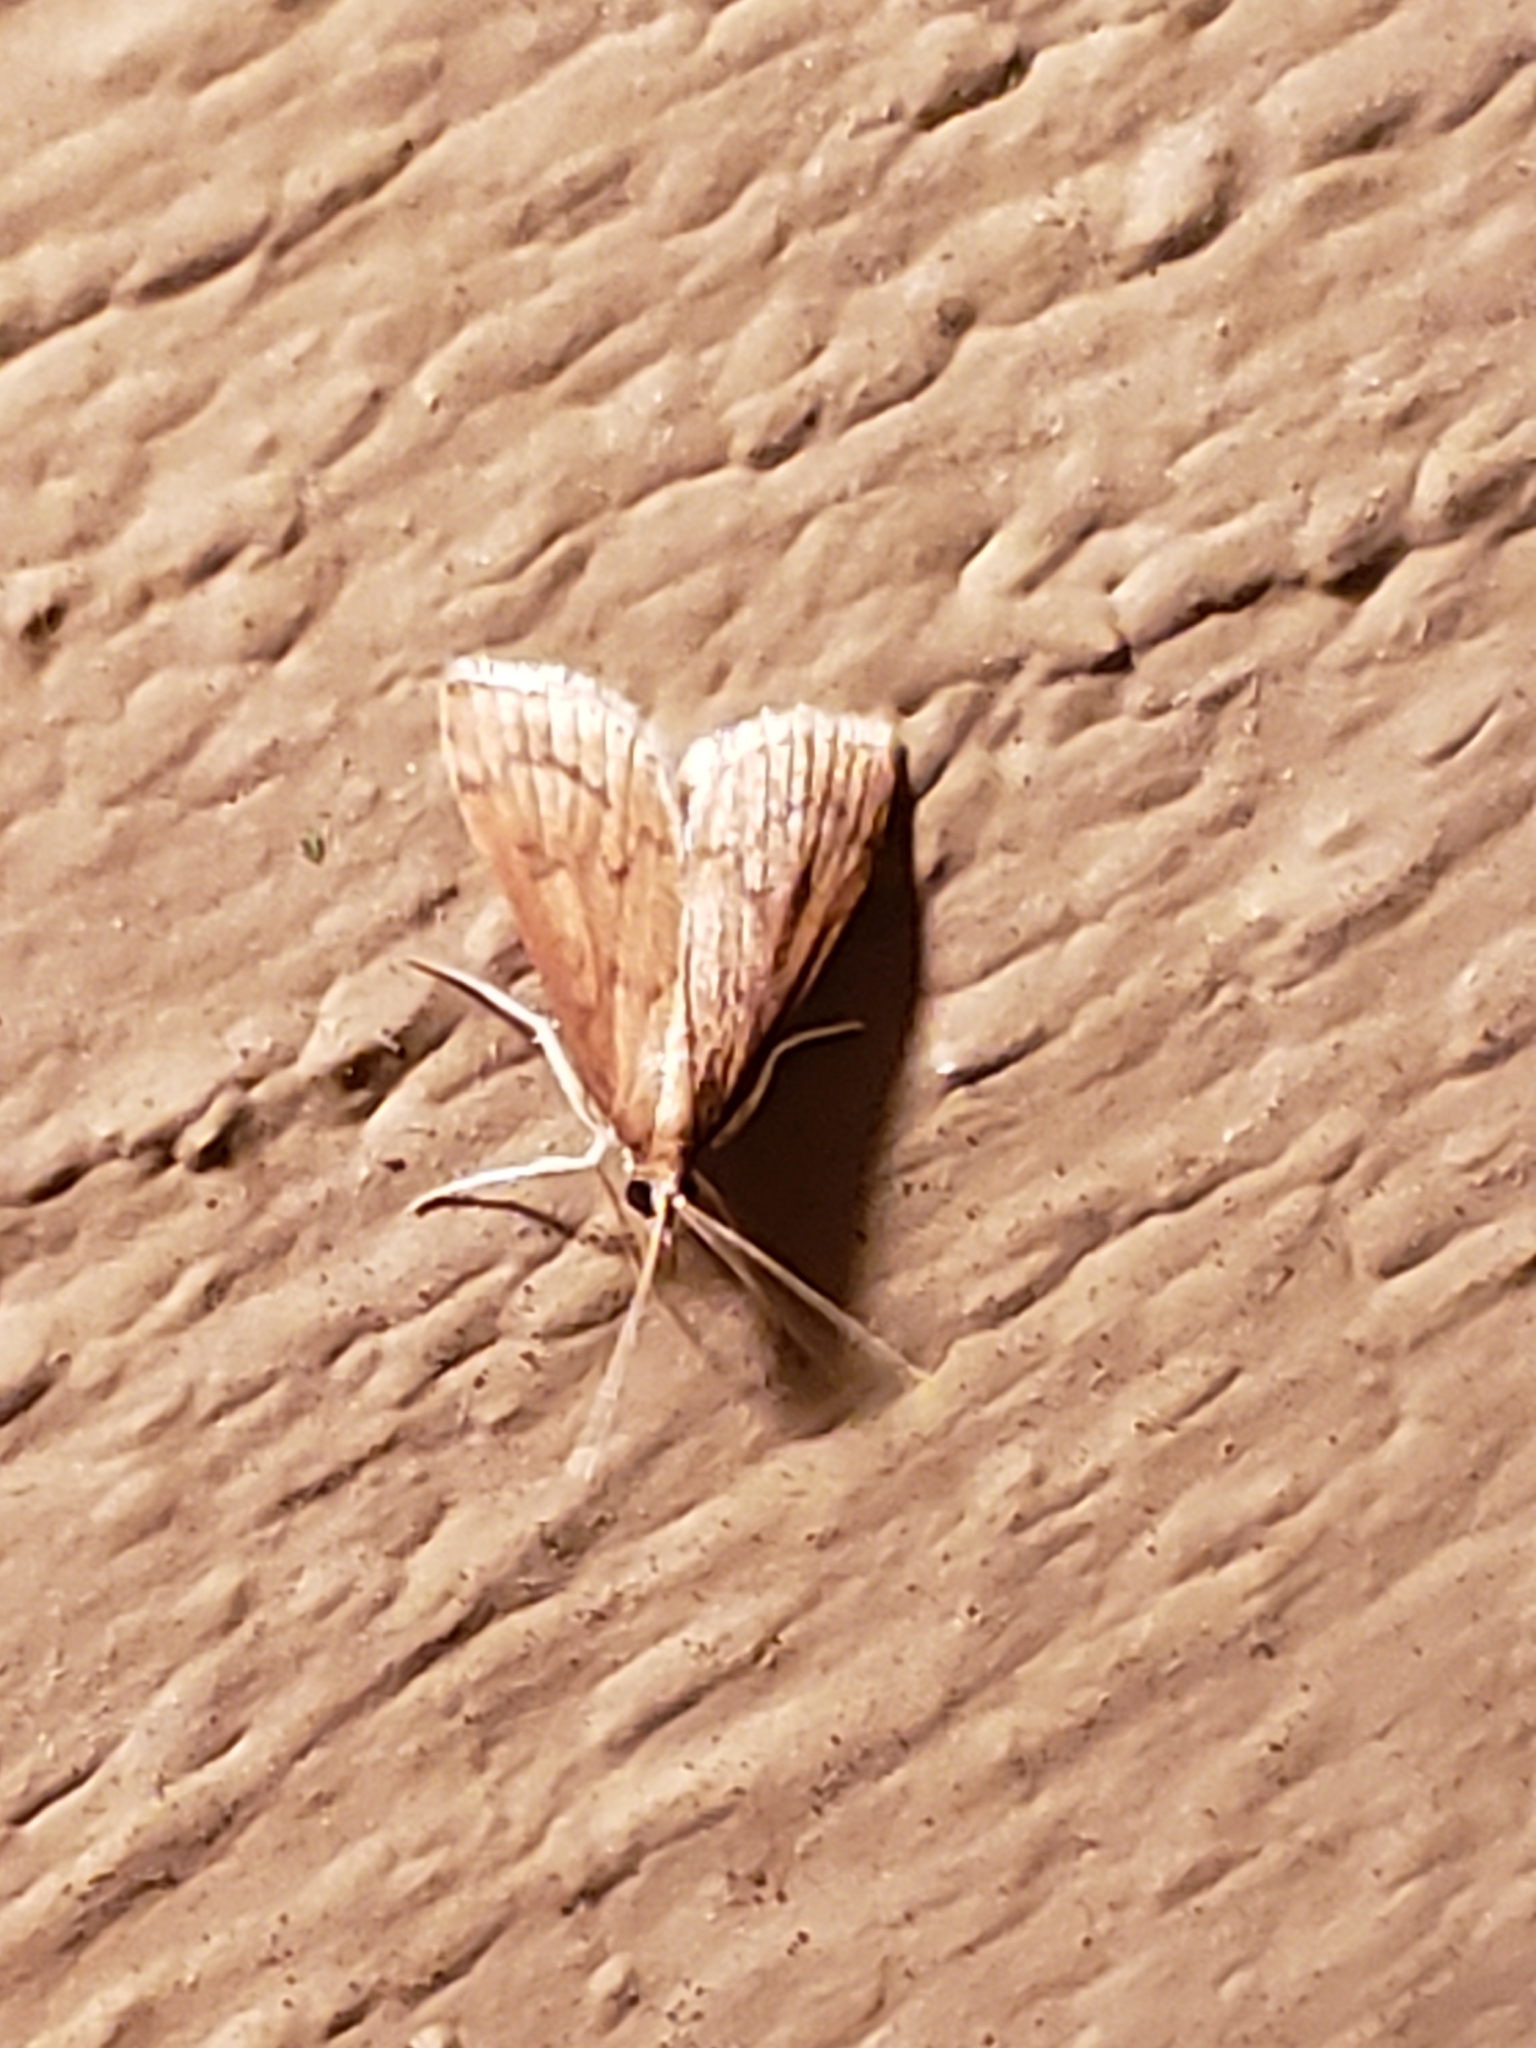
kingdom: Animalia
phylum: Arthropoda
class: Insecta
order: Lepidoptera
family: Crambidae
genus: Udea
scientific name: Udea rubigalis
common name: Celery leaftier moth
